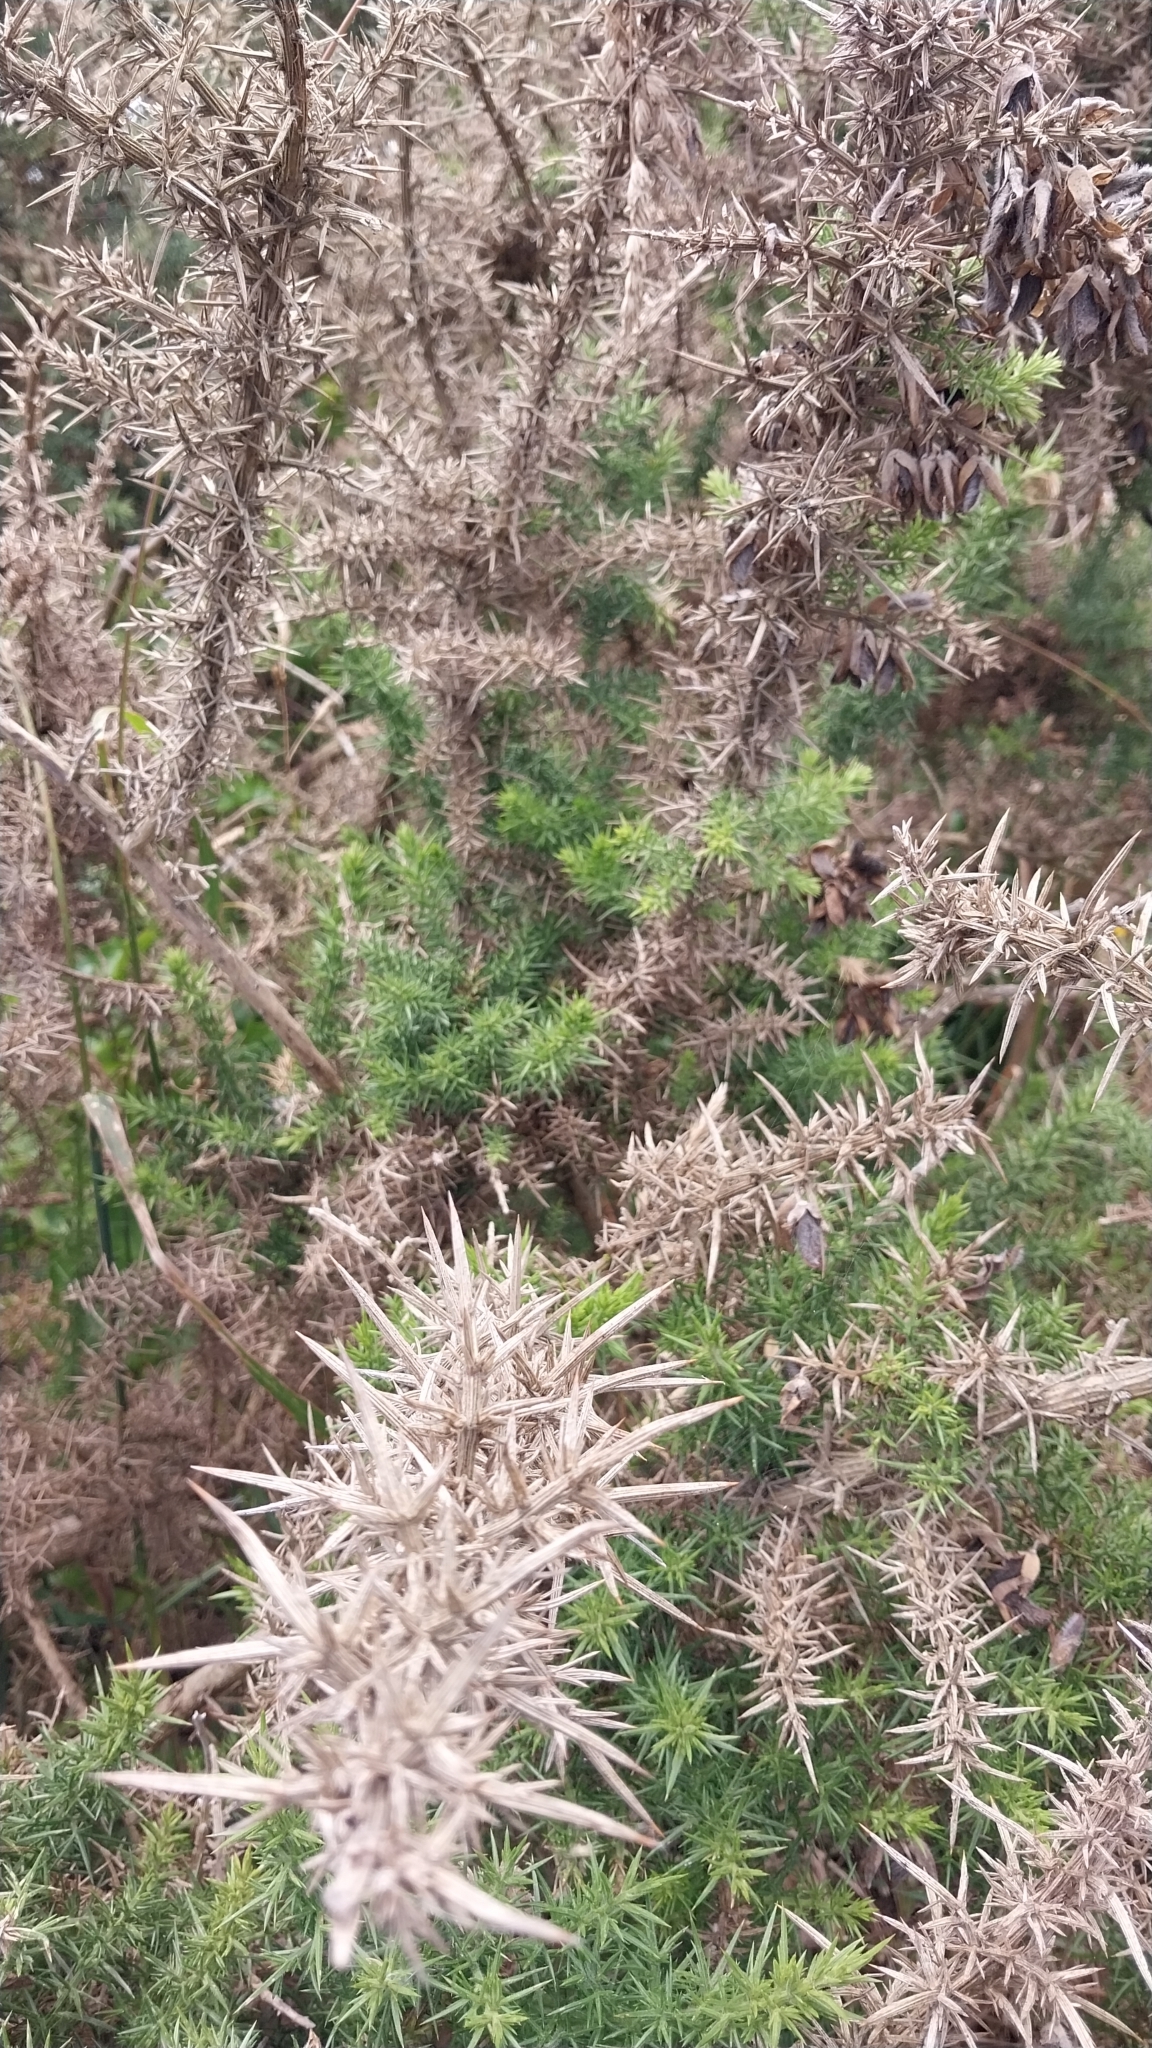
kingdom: Plantae
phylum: Tracheophyta
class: Magnoliopsida
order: Fabales
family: Fabaceae
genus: Ulex
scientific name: Ulex europaeus
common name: Common gorse
